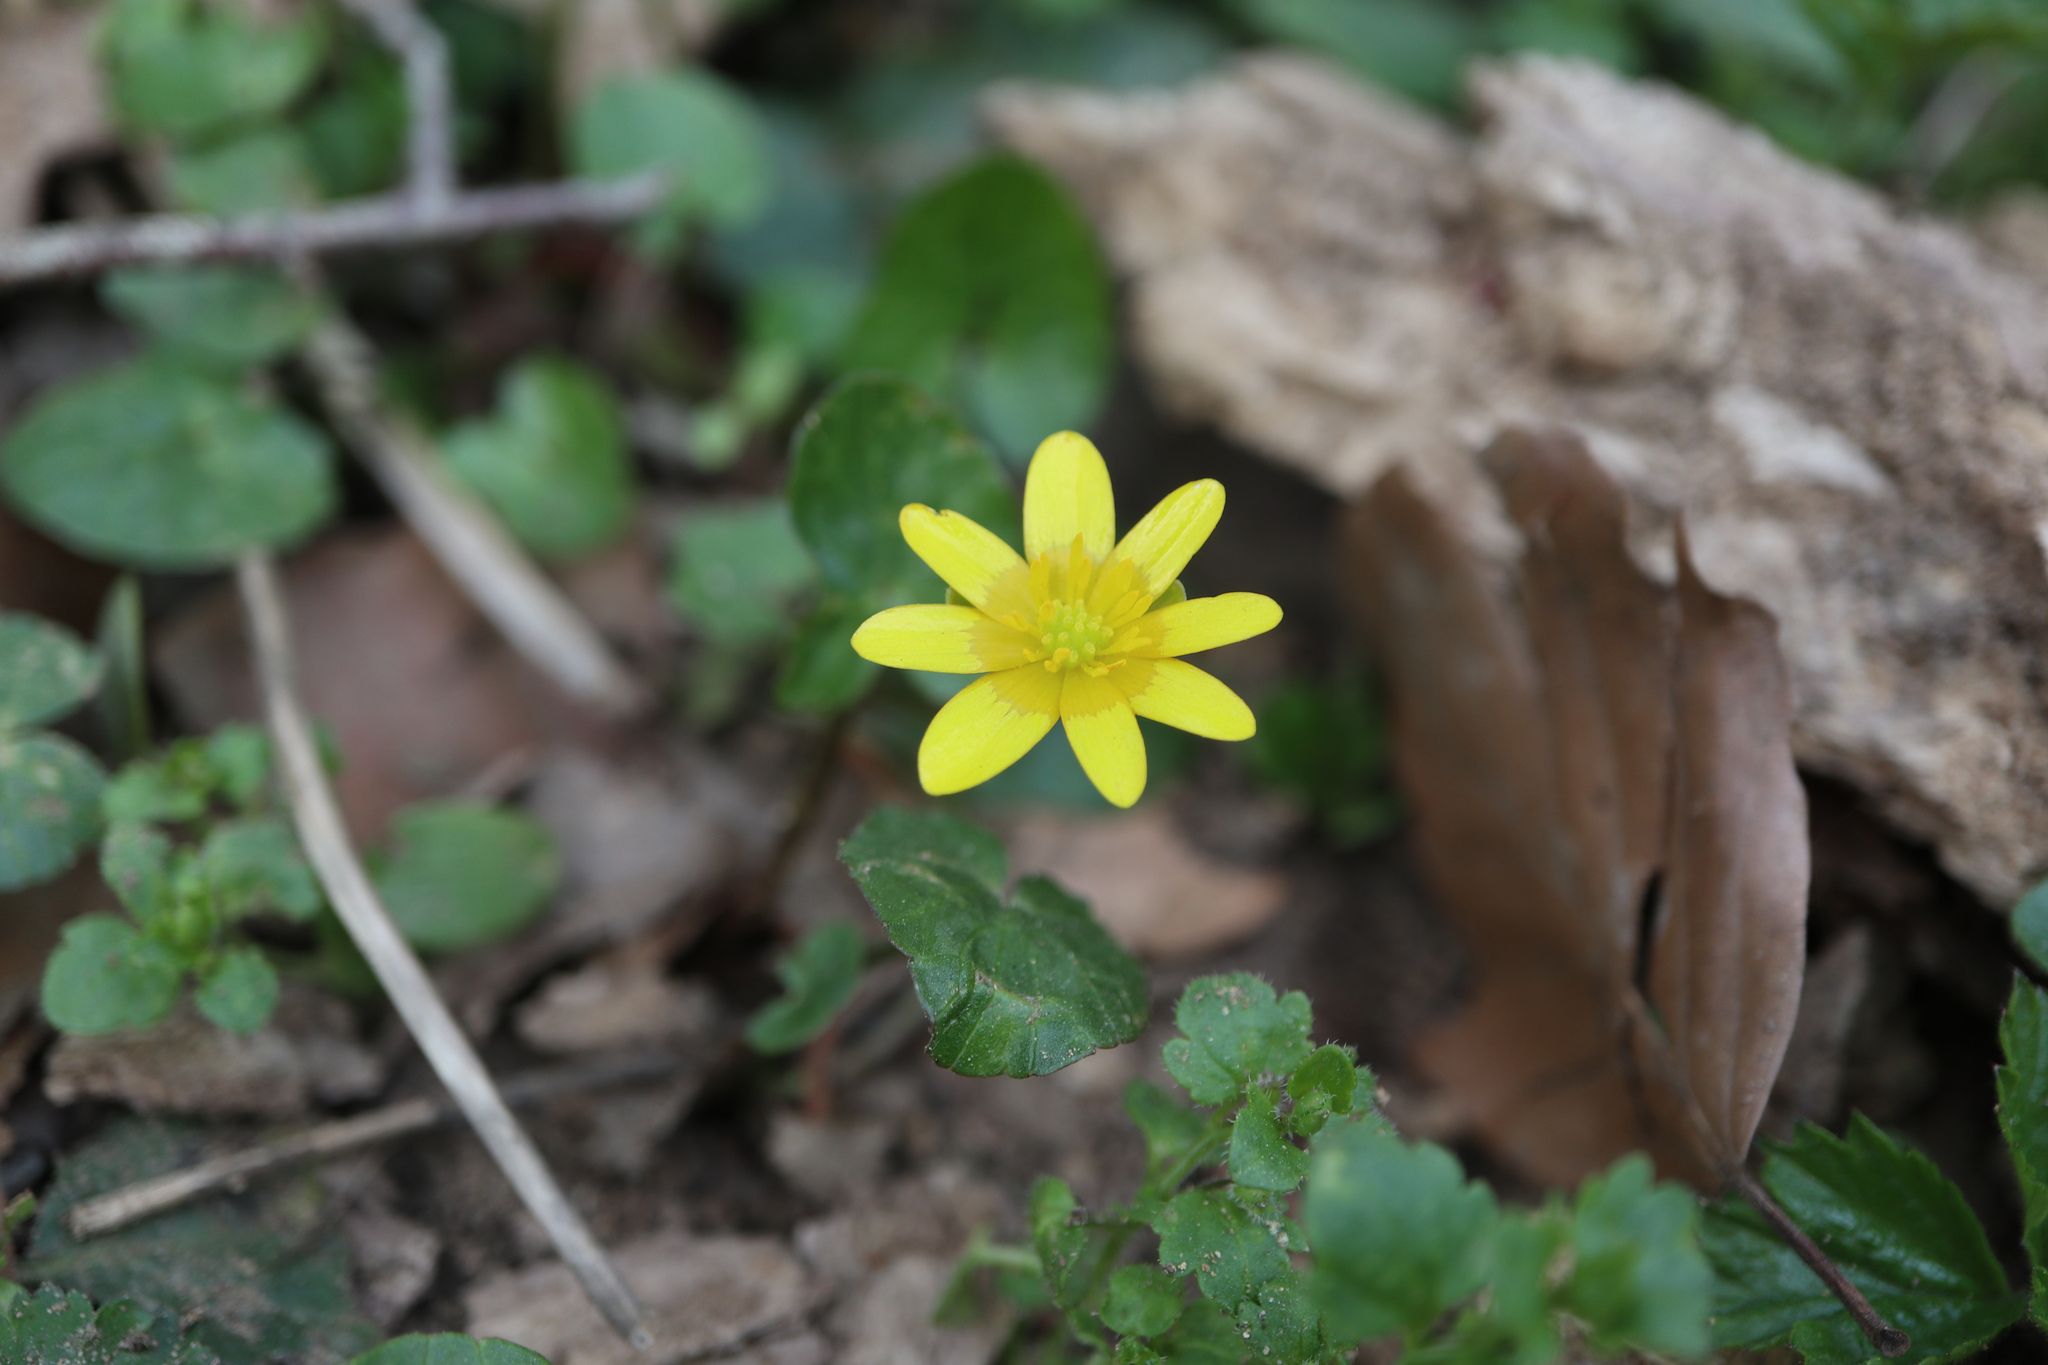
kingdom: Plantae
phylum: Tracheophyta
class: Magnoliopsida
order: Ranunculales
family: Ranunculaceae
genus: Ficaria
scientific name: Ficaria verna
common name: Lesser celandine
